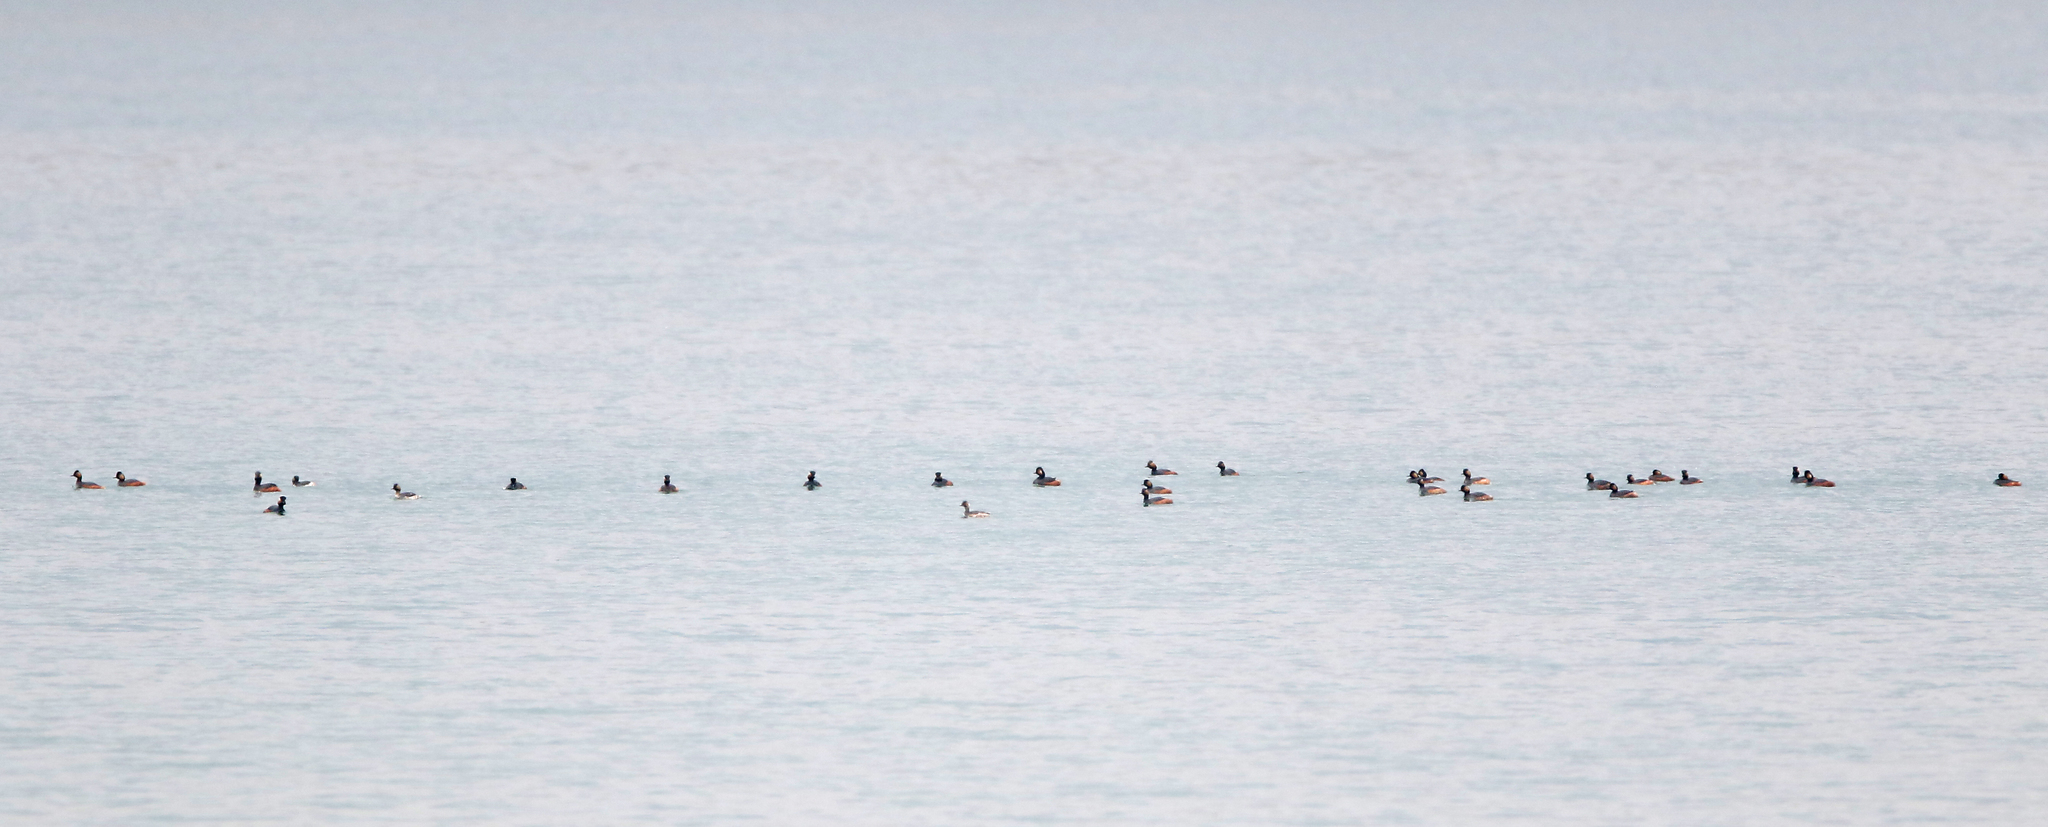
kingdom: Animalia
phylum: Chordata
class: Aves
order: Podicipediformes
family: Podicipedidae
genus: Podiceps
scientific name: Podiceps nigricollis
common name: Black-necked grebe
